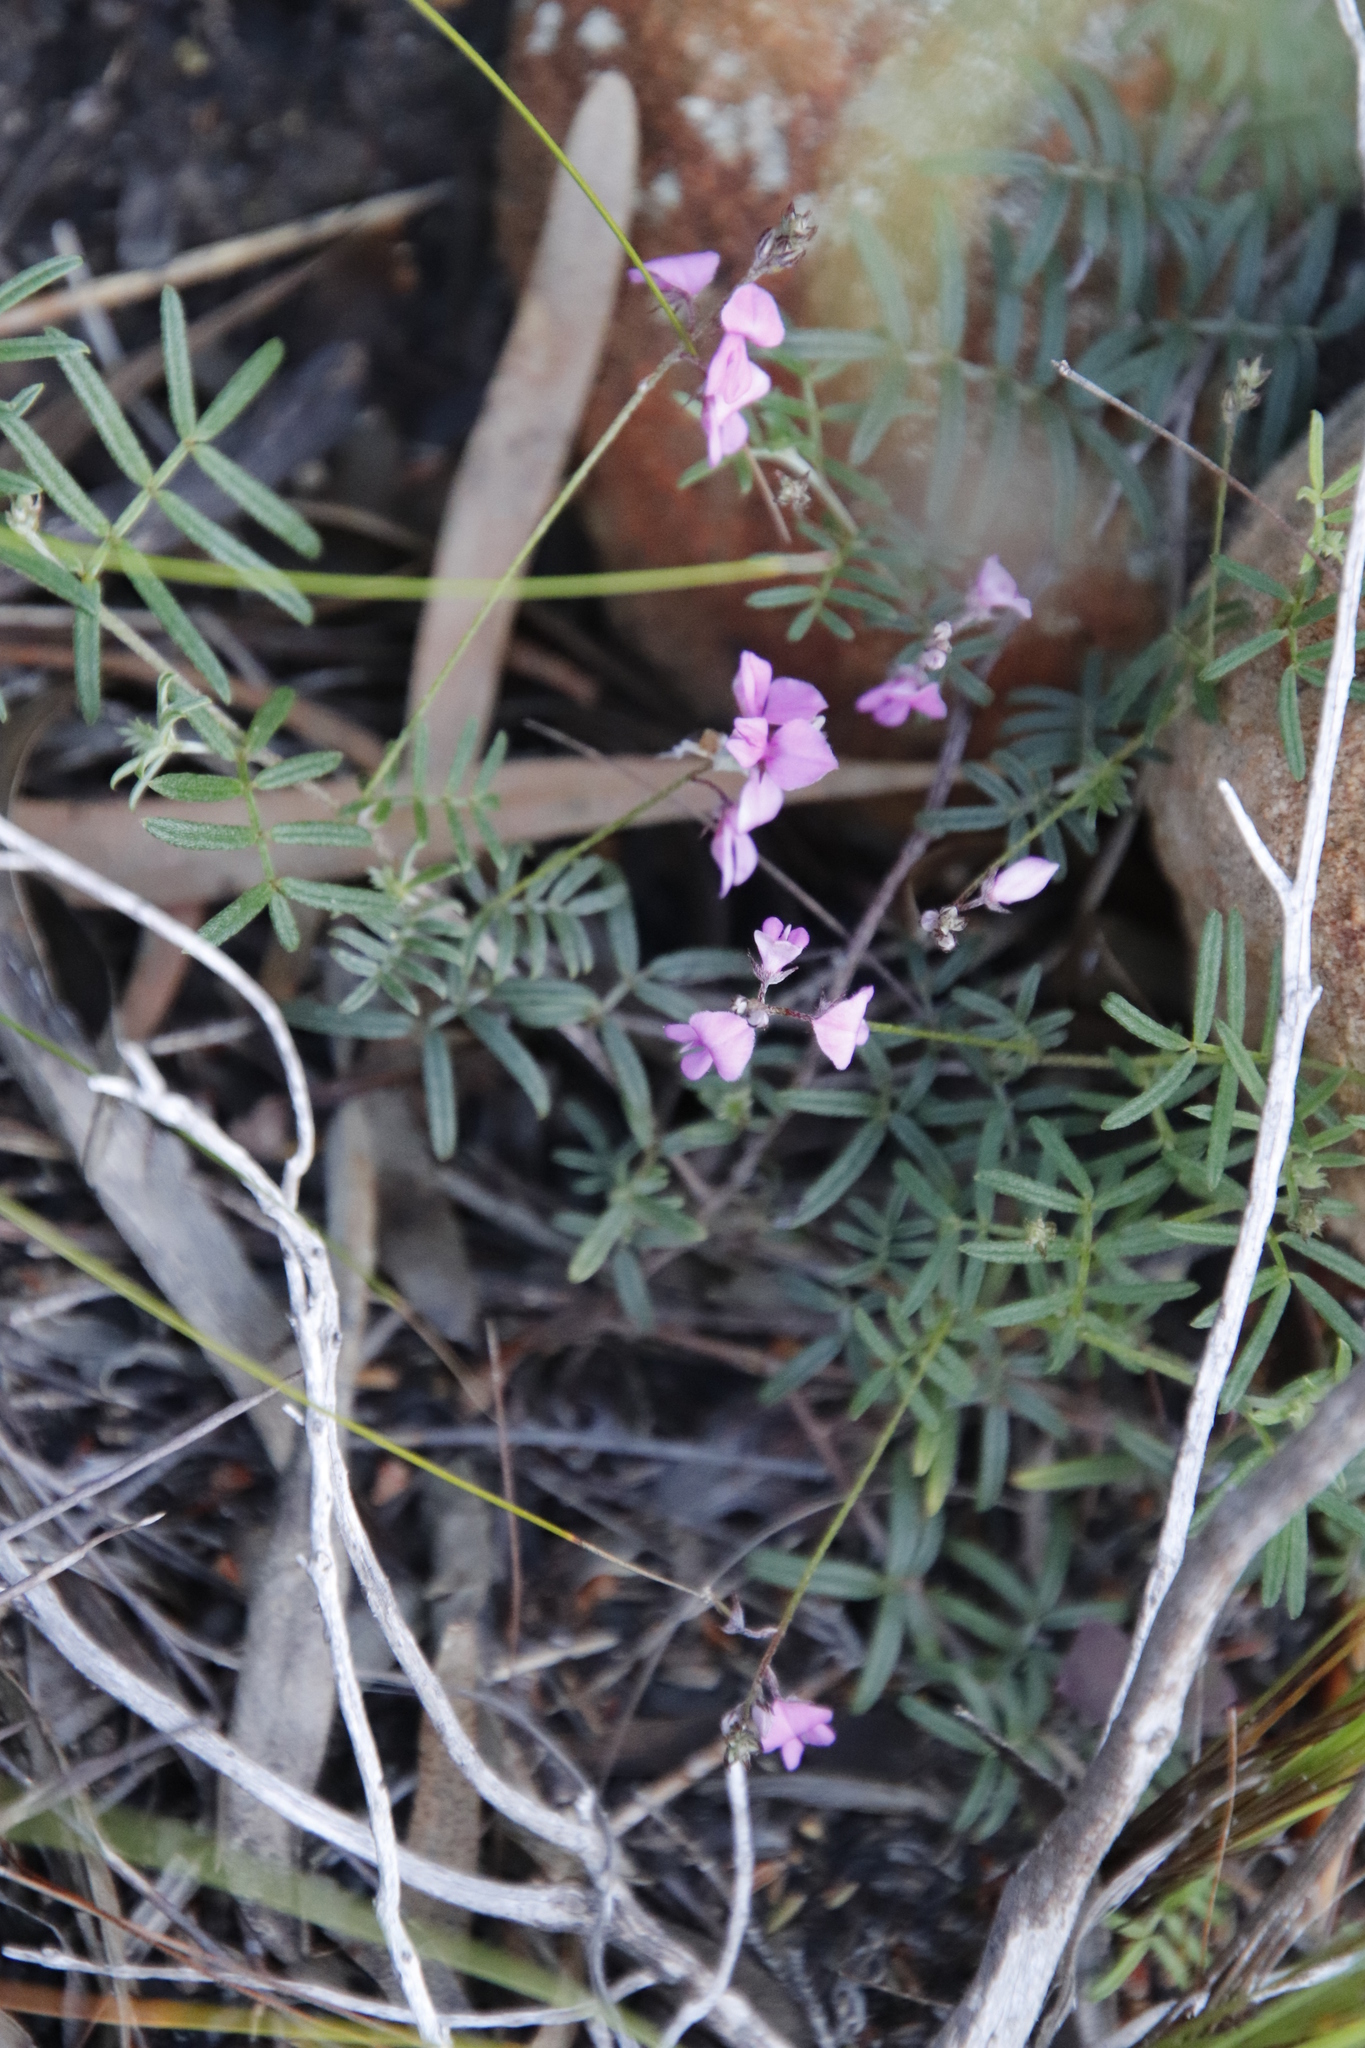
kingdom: Plantae
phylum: Tracheophyta
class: Magnoliopsida
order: Fabales
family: Fabaceae
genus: Indigofera
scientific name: Indigofera angustifolia
